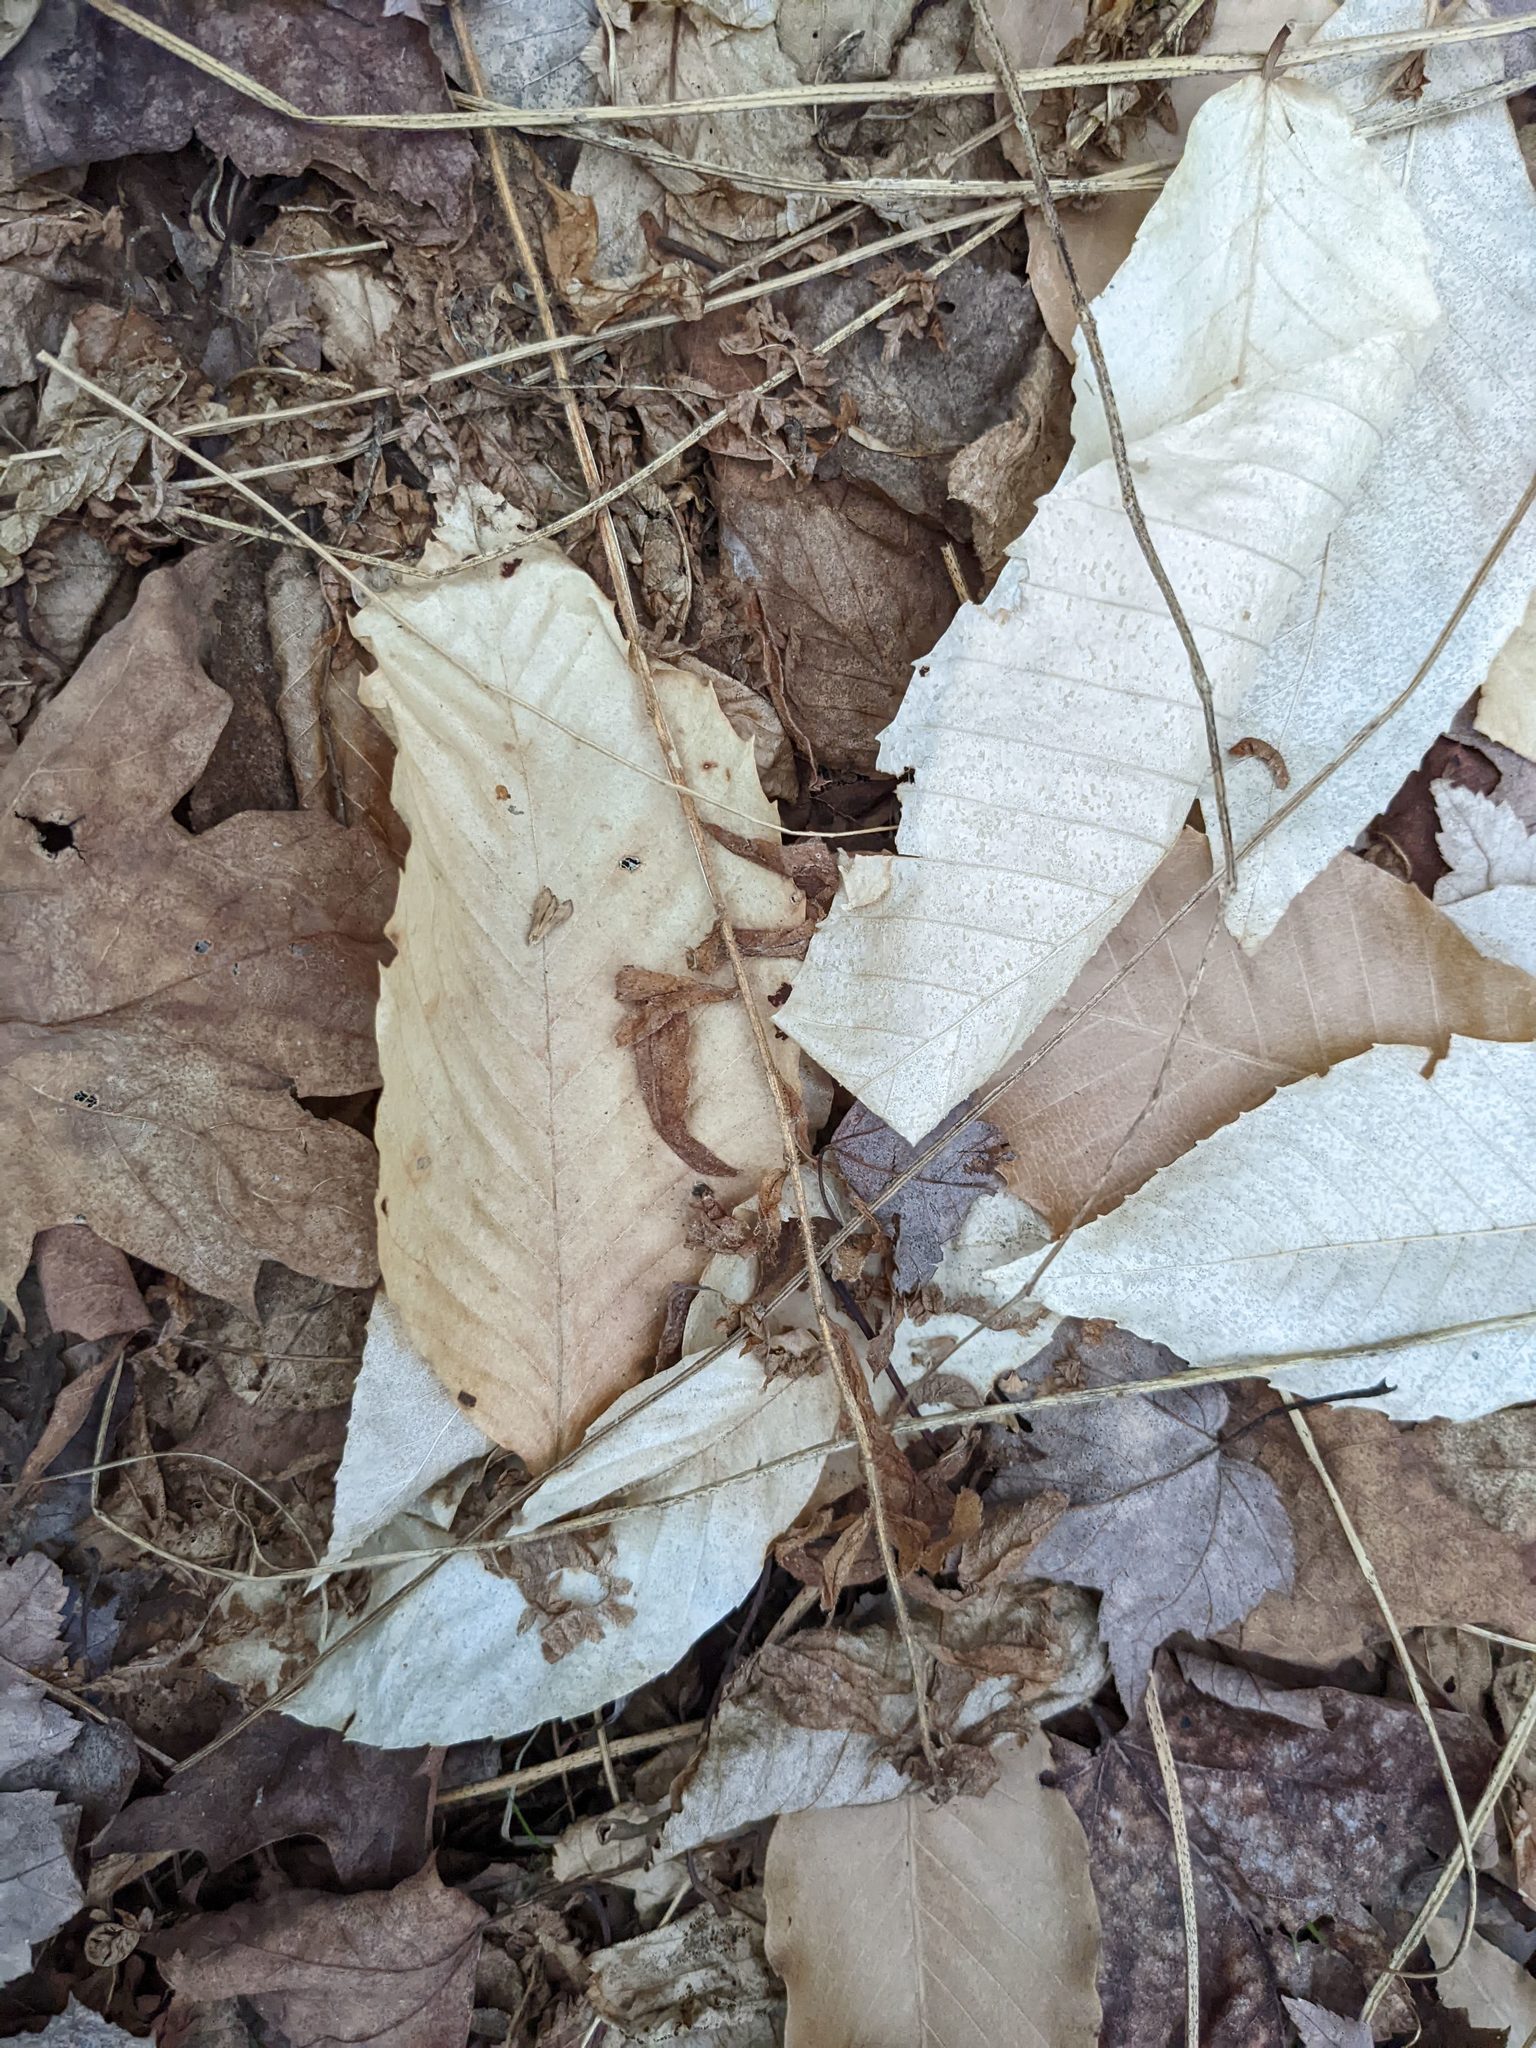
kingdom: Plantae
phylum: Tracheophyta
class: Magnoliopsida
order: Fagales
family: Fagaceae
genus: Fagus
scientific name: Fagus grandifolia
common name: American beech
